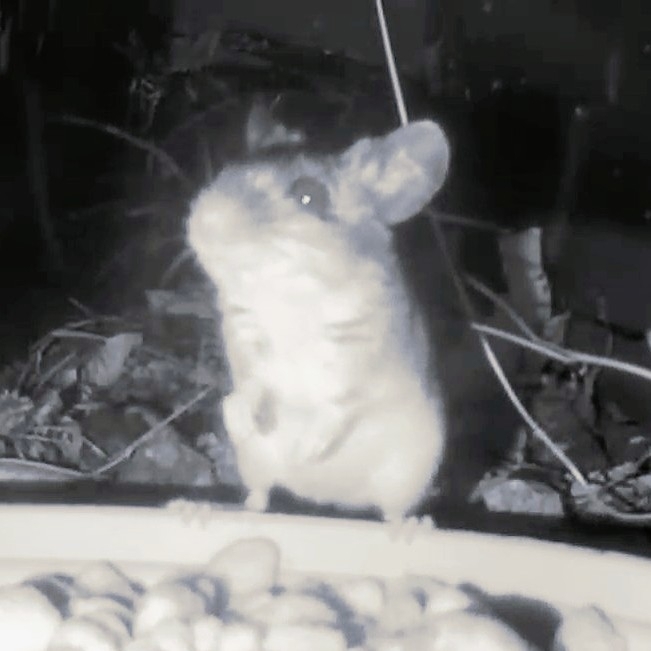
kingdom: Animalia
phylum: Chordata
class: Mammalia
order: Rodentia
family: Muridae
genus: Apodemus
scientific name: Apodemus sylvaticus
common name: Wood mouse
